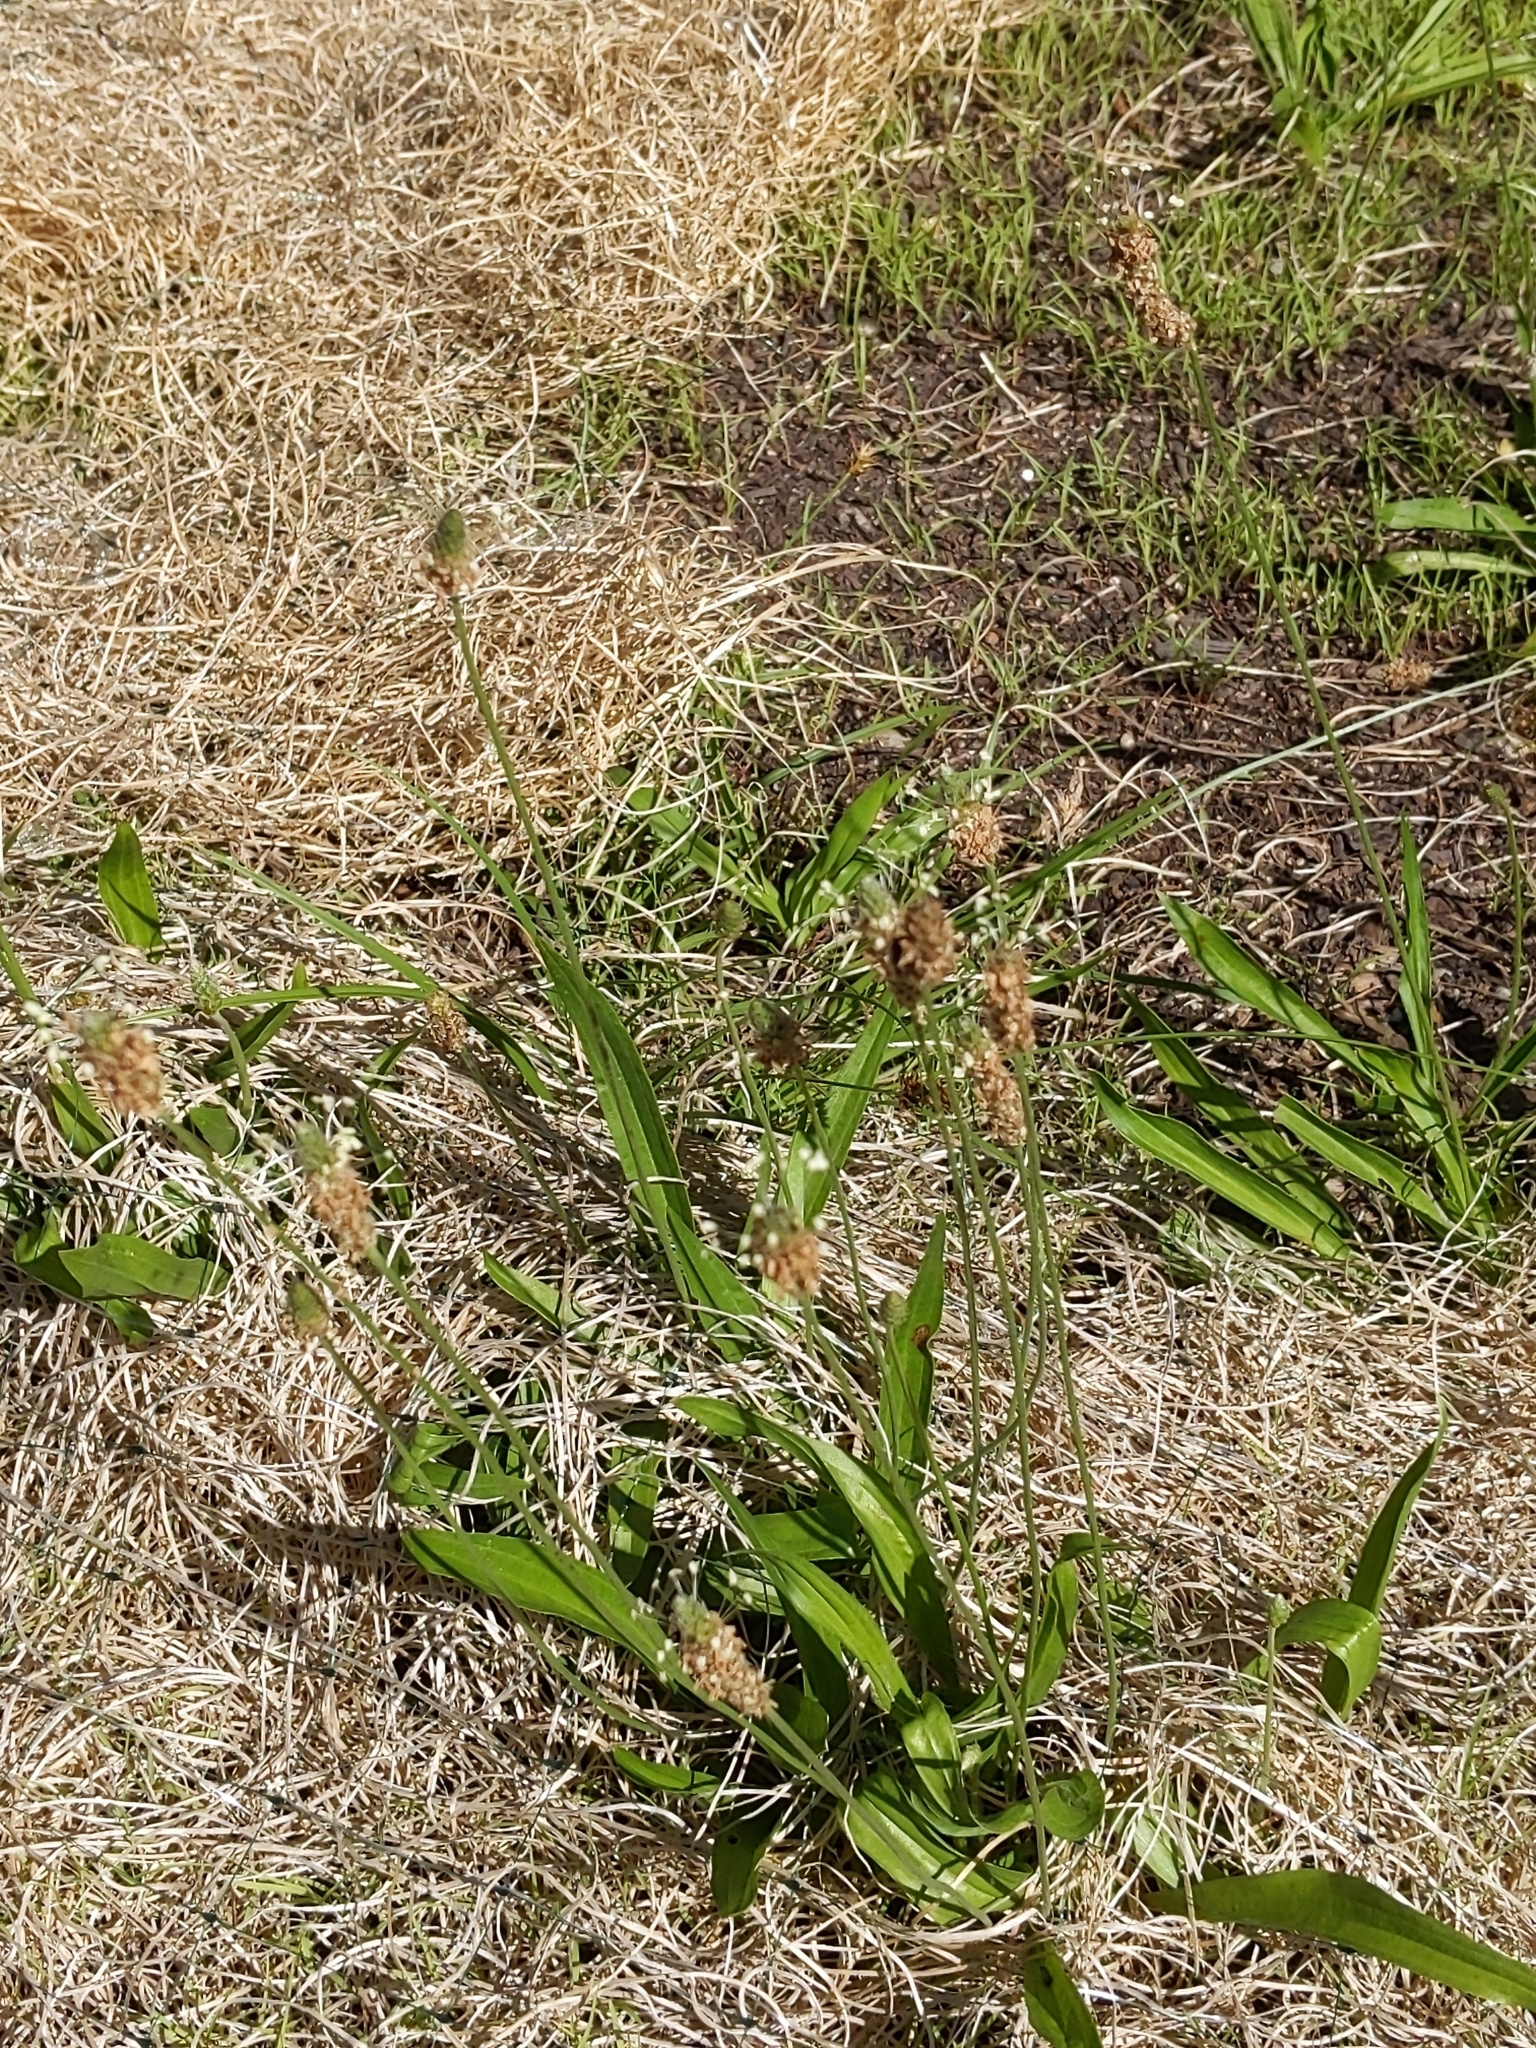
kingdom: Plantae
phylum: Tracheophyta
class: Magnoliopsida
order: Lamiales
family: Plantaginaceae
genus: Plantago
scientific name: Plantago lanceolata
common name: Ribwort plantain
